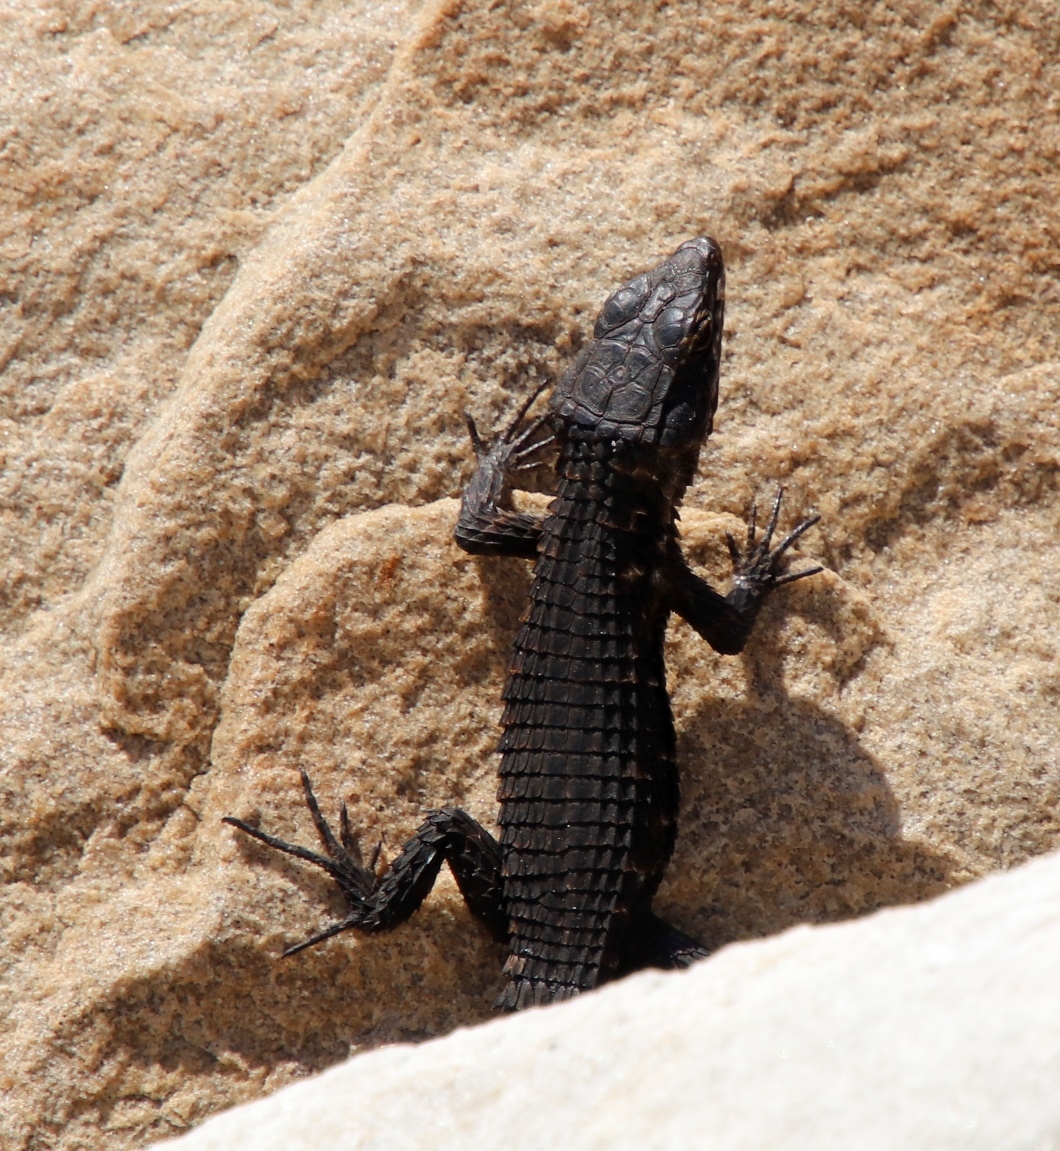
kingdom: Animalia
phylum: Chordata
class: Squamata
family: Cordylidae
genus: Cordylus
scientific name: Cordylus niger
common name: Black girdled lizard
